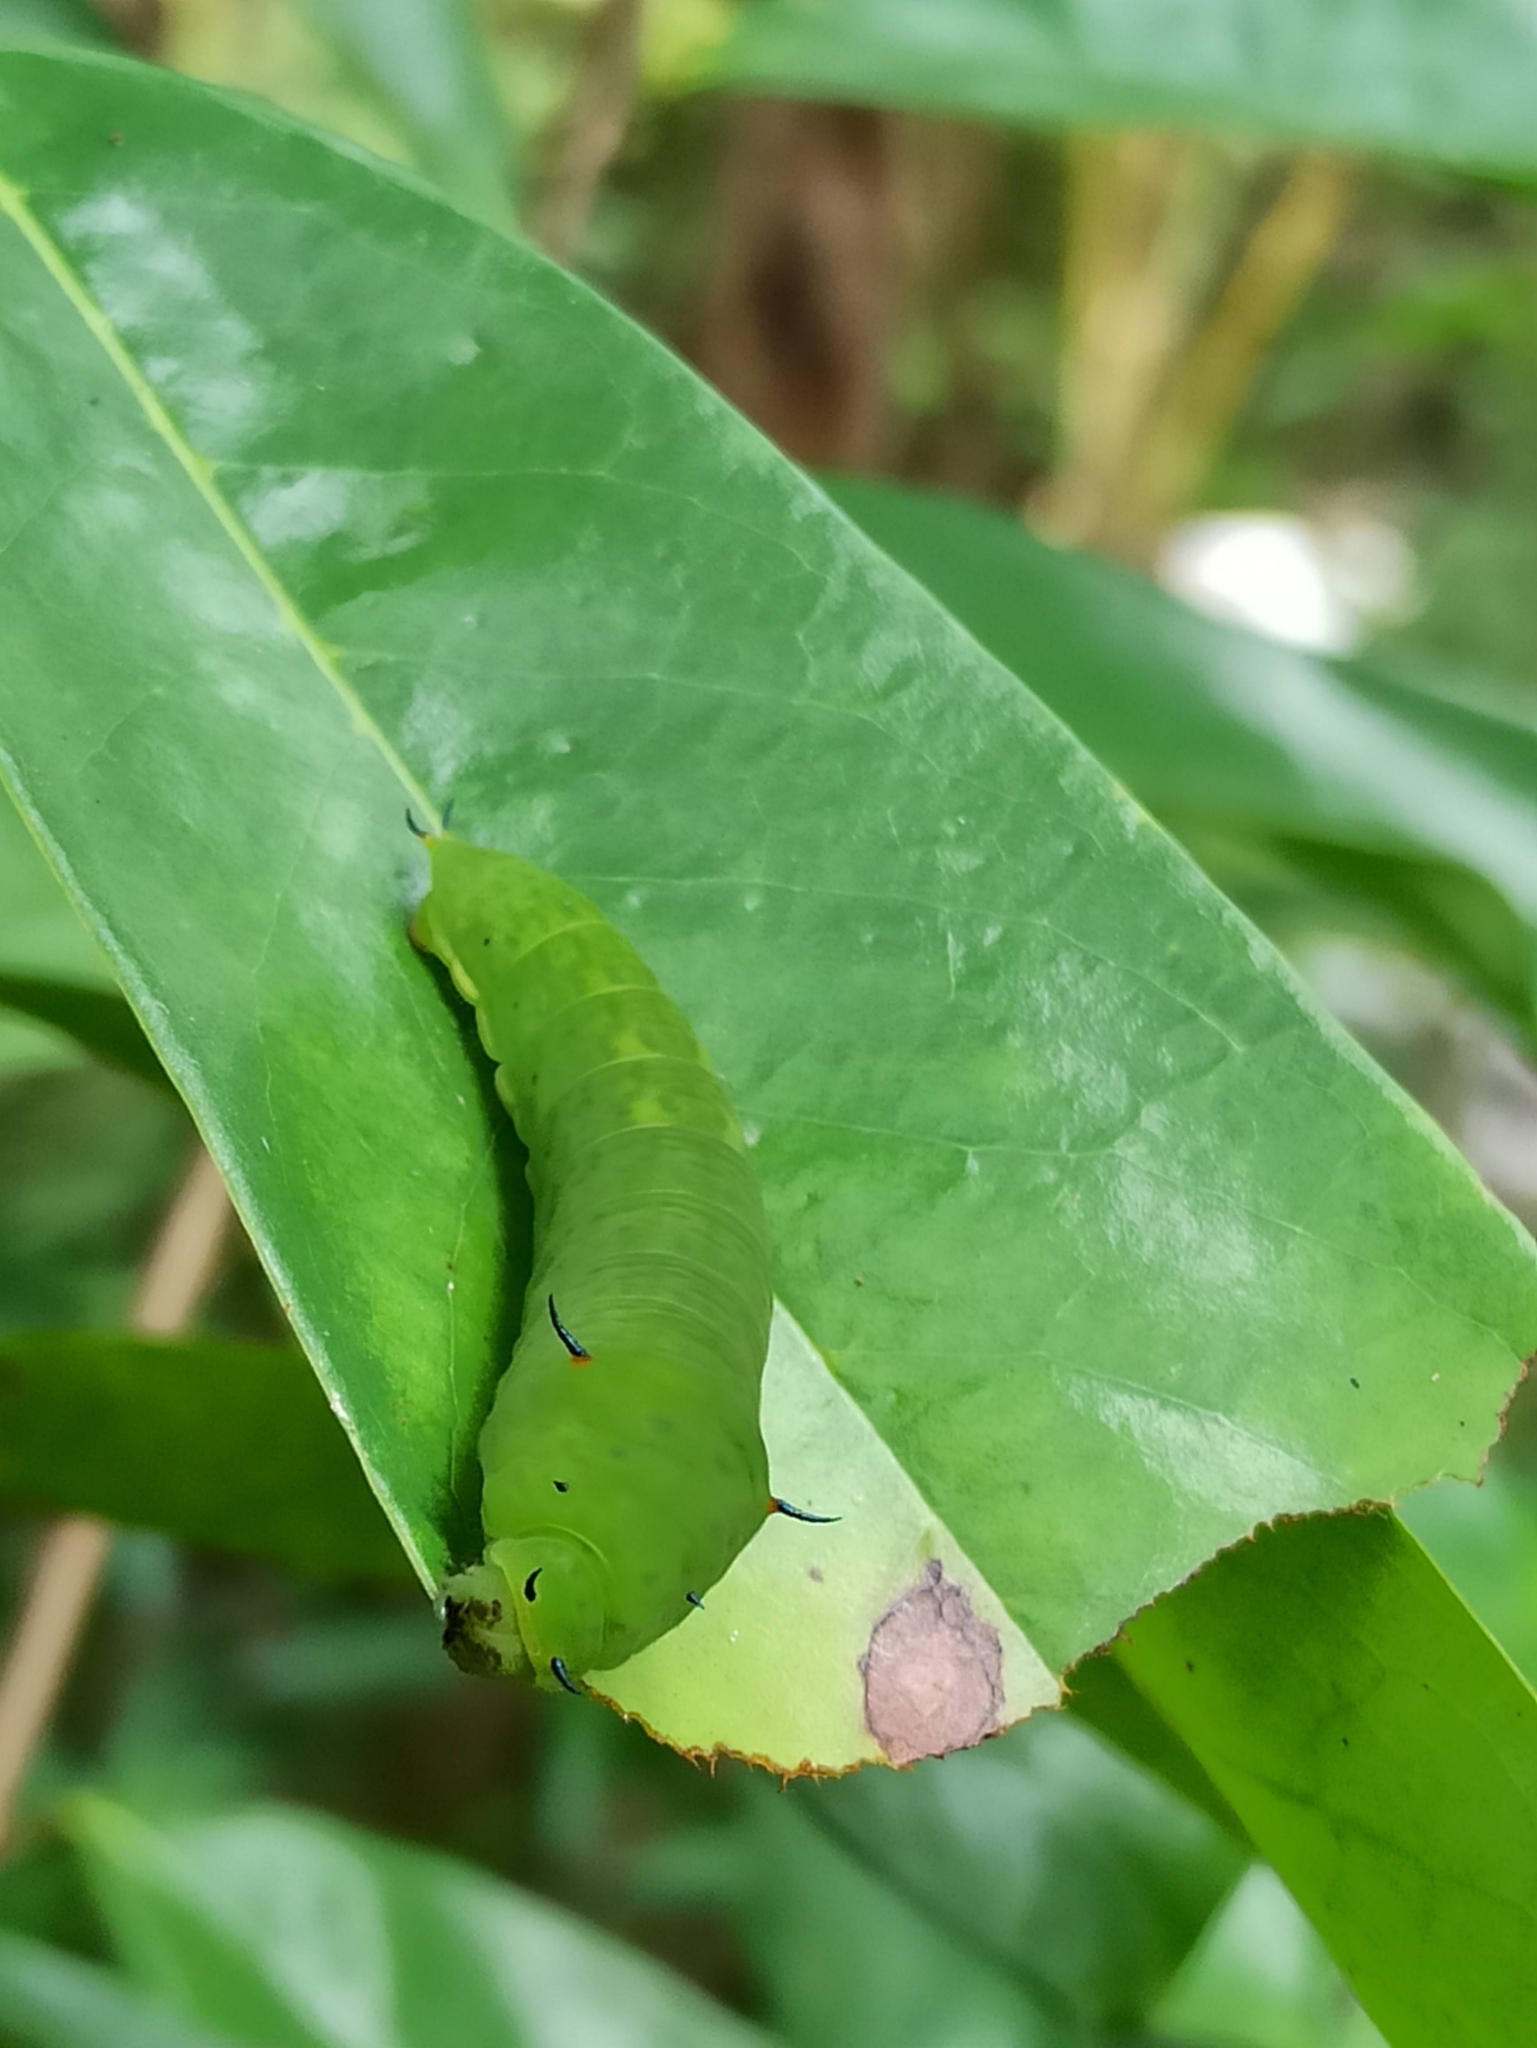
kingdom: Animalia
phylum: Arthropoda
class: Insecta
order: Lepidoptera
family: Papilionidae
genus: Graphium
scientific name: Graphium agamemnon
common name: Tailed jay
